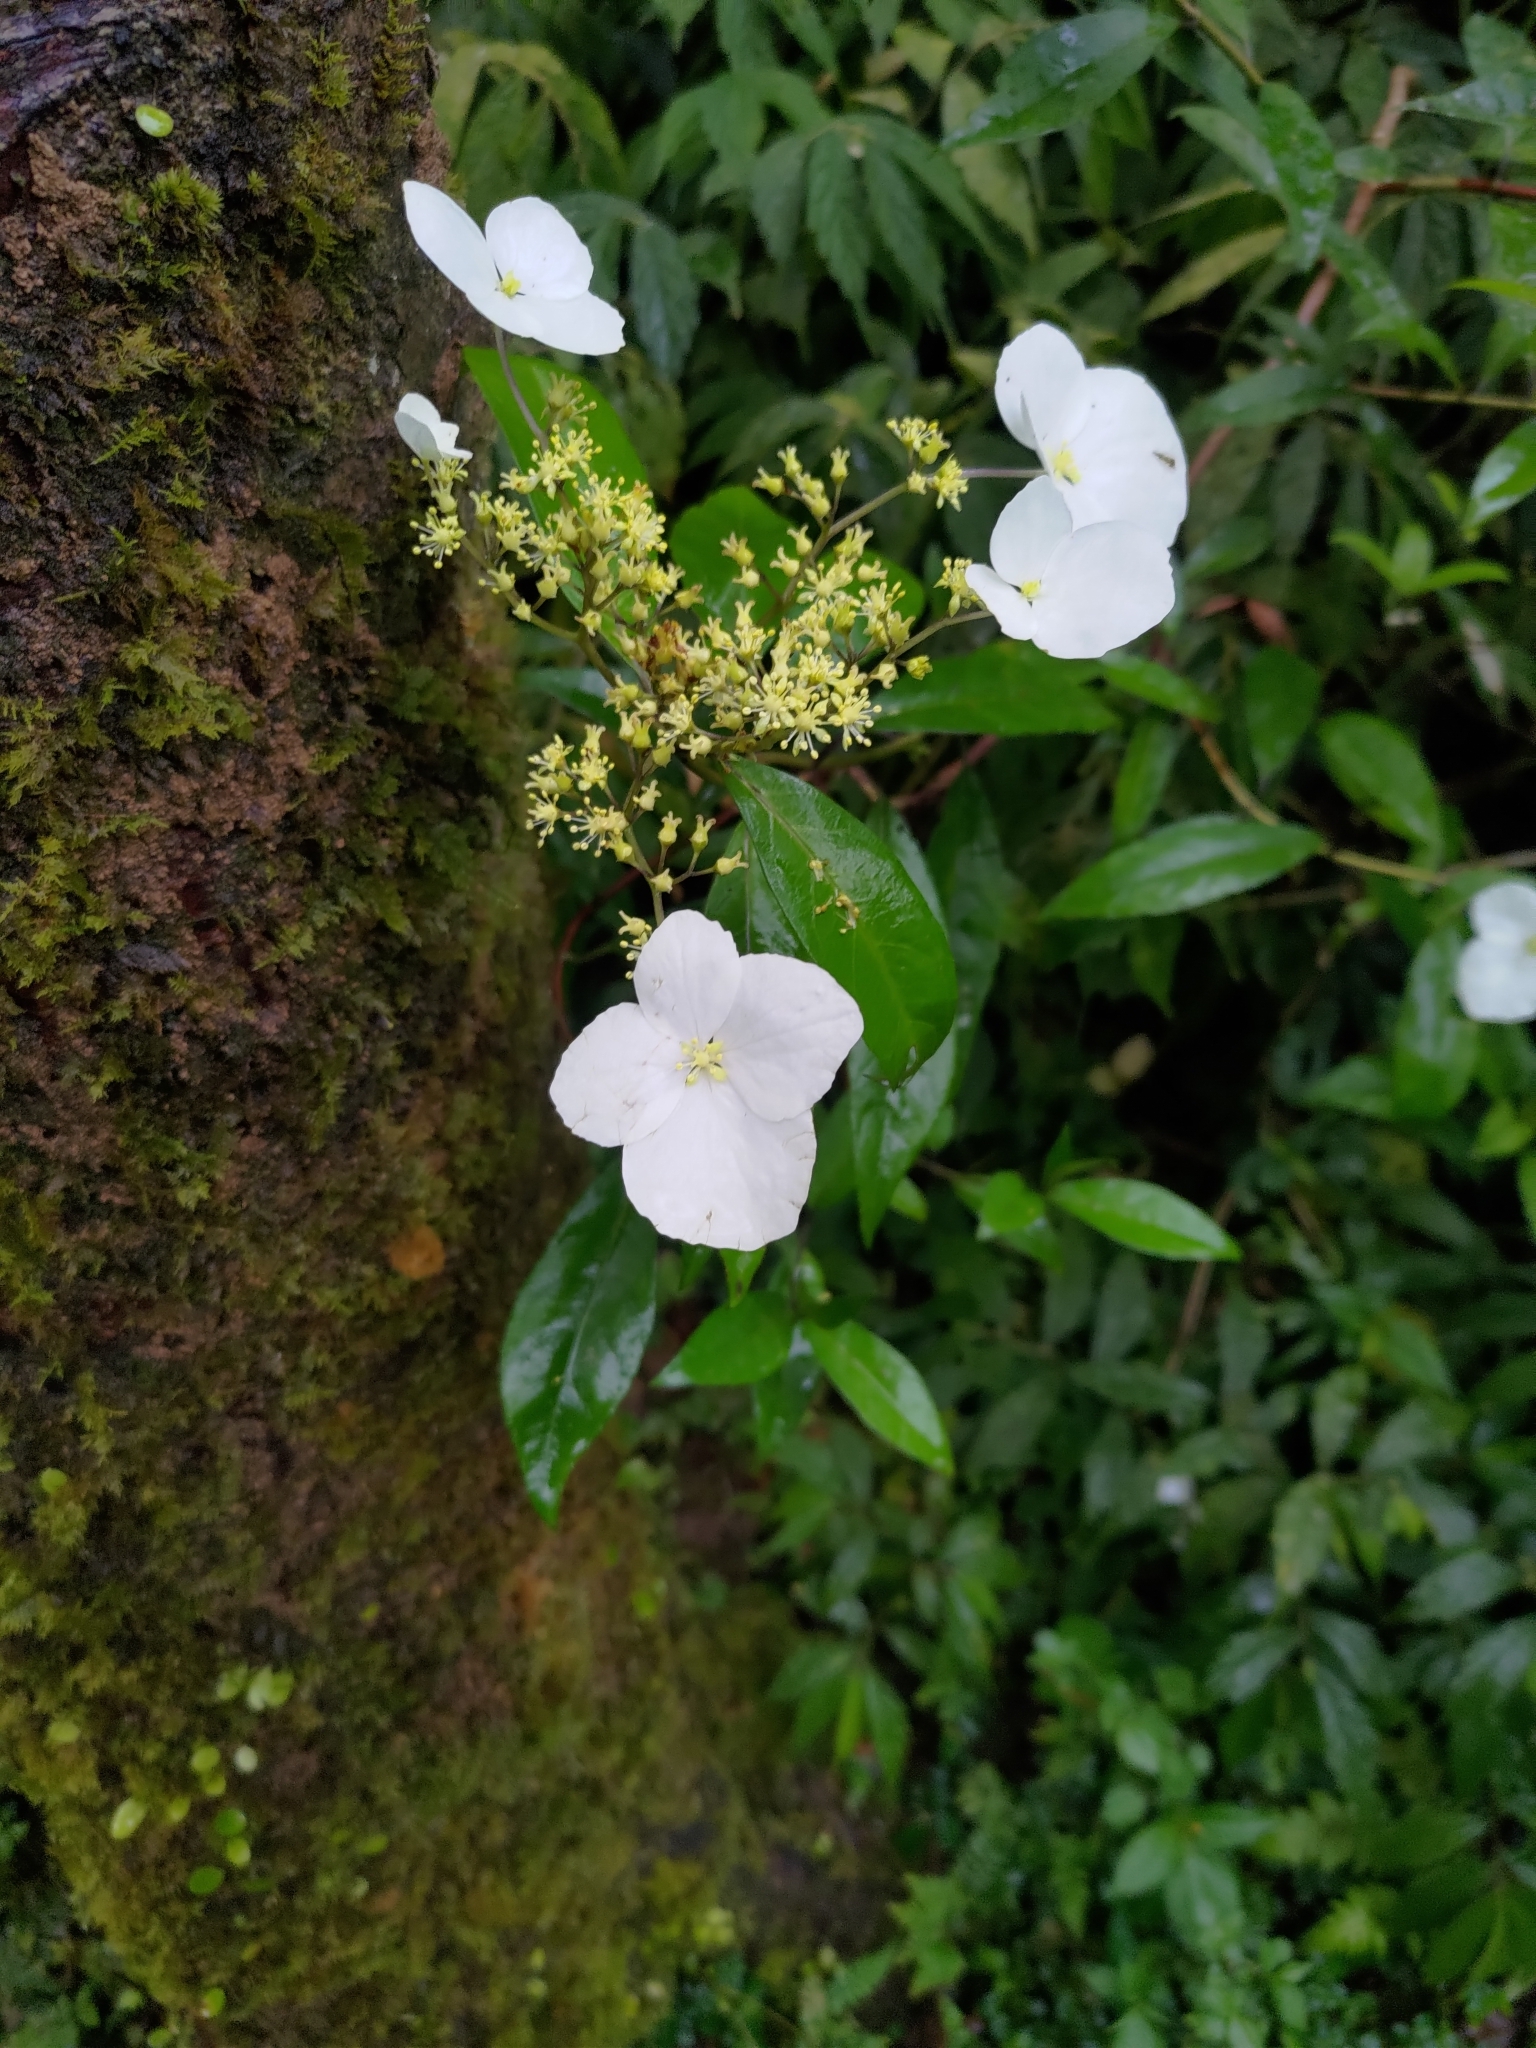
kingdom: Plantae
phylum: Tracheophyta
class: Magnoliopsida
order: Cornales
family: Hydrangeaceae
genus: Hydrangea
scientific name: Hydrangea chinensis
